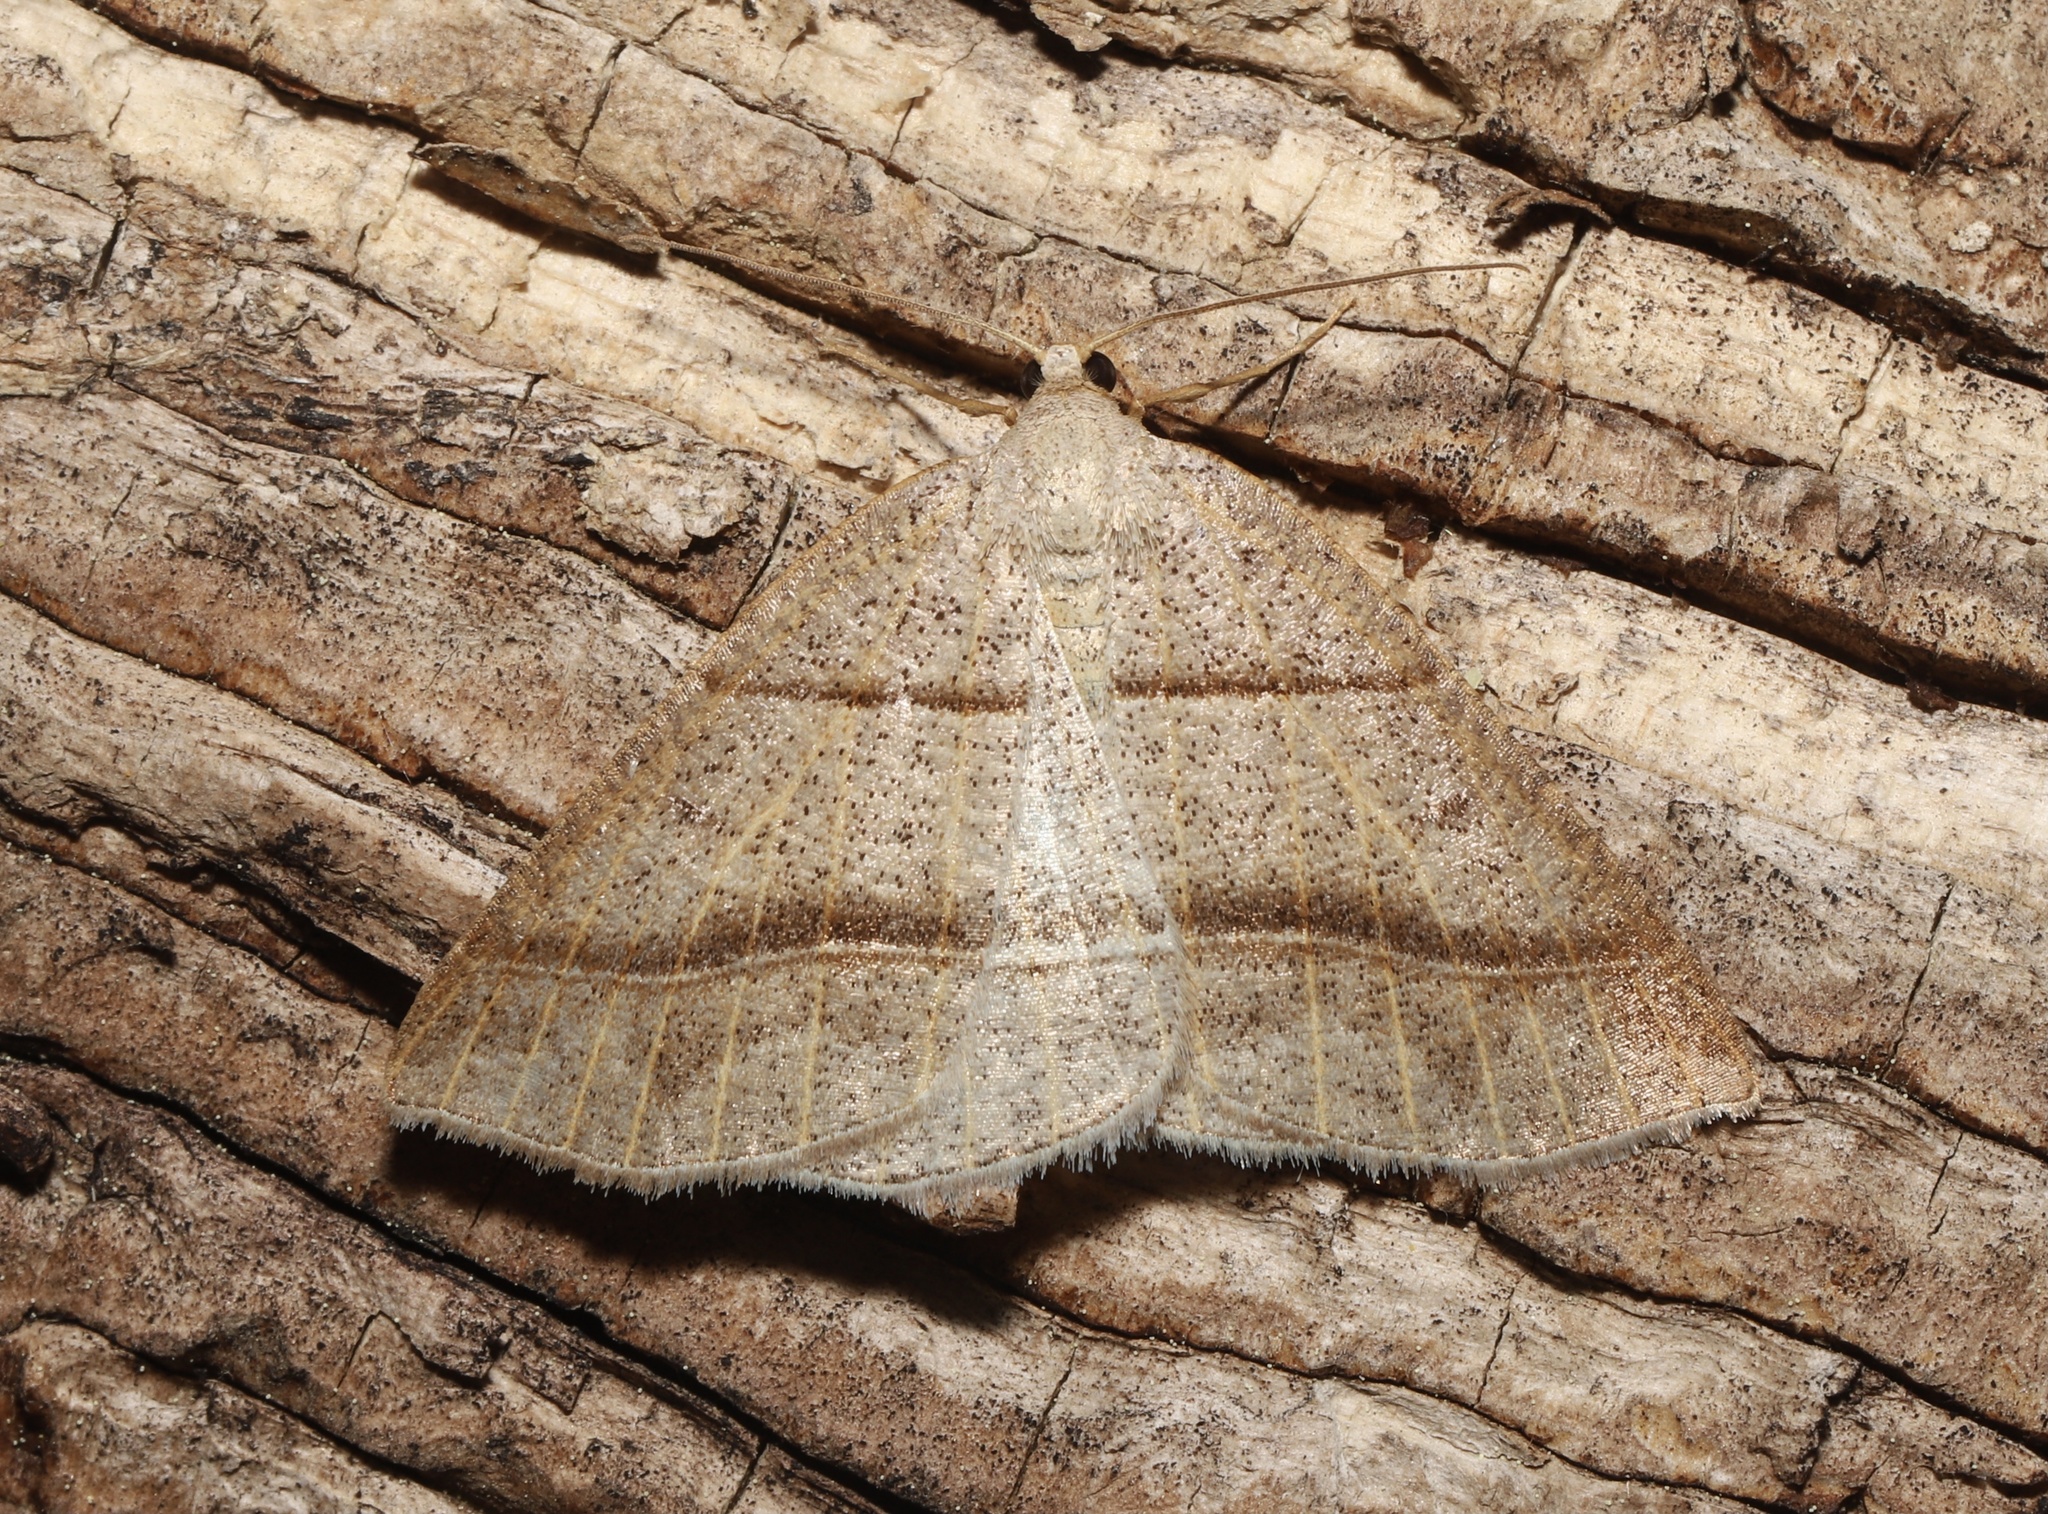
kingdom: Animalia
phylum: Arthropoda
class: Insecta
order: Lepidoptera
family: Pterophoridae
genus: Pterophorus
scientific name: Pterophorus Petrophora subaequaria
